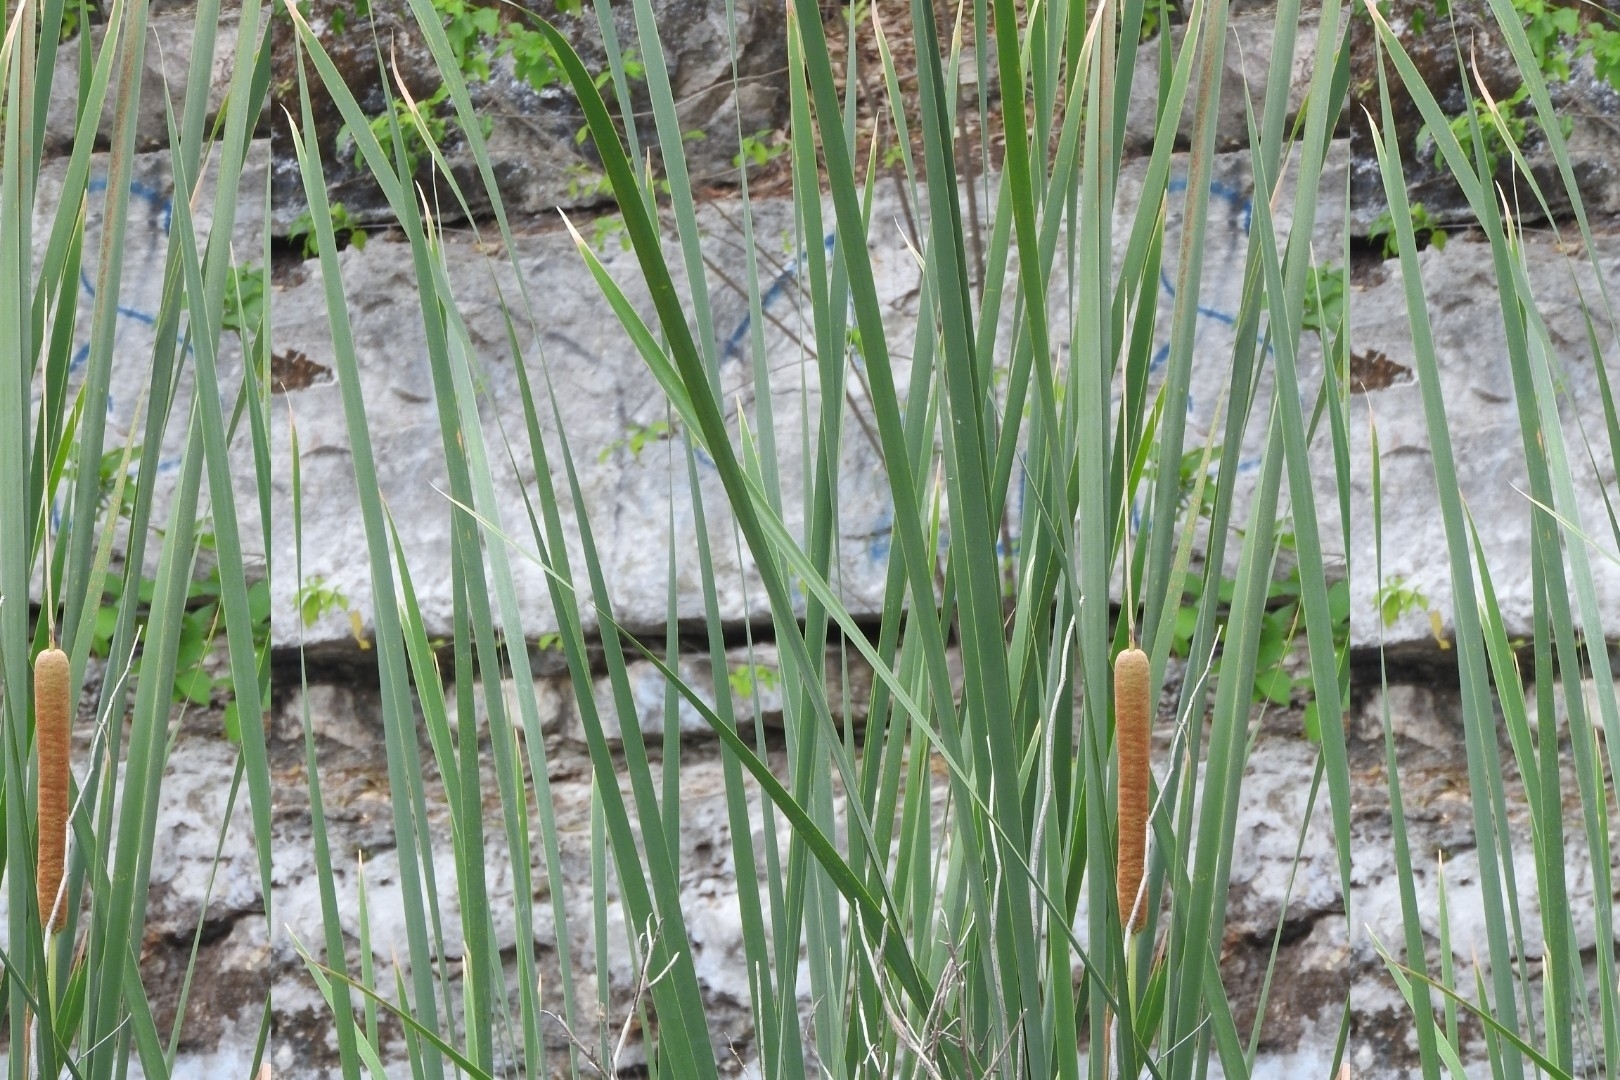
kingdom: Plantae
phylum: Tracheophyta
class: Liliopsida
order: Poales
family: Typhaceae
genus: Typha
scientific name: Typha domingensis
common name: Southern cattail
